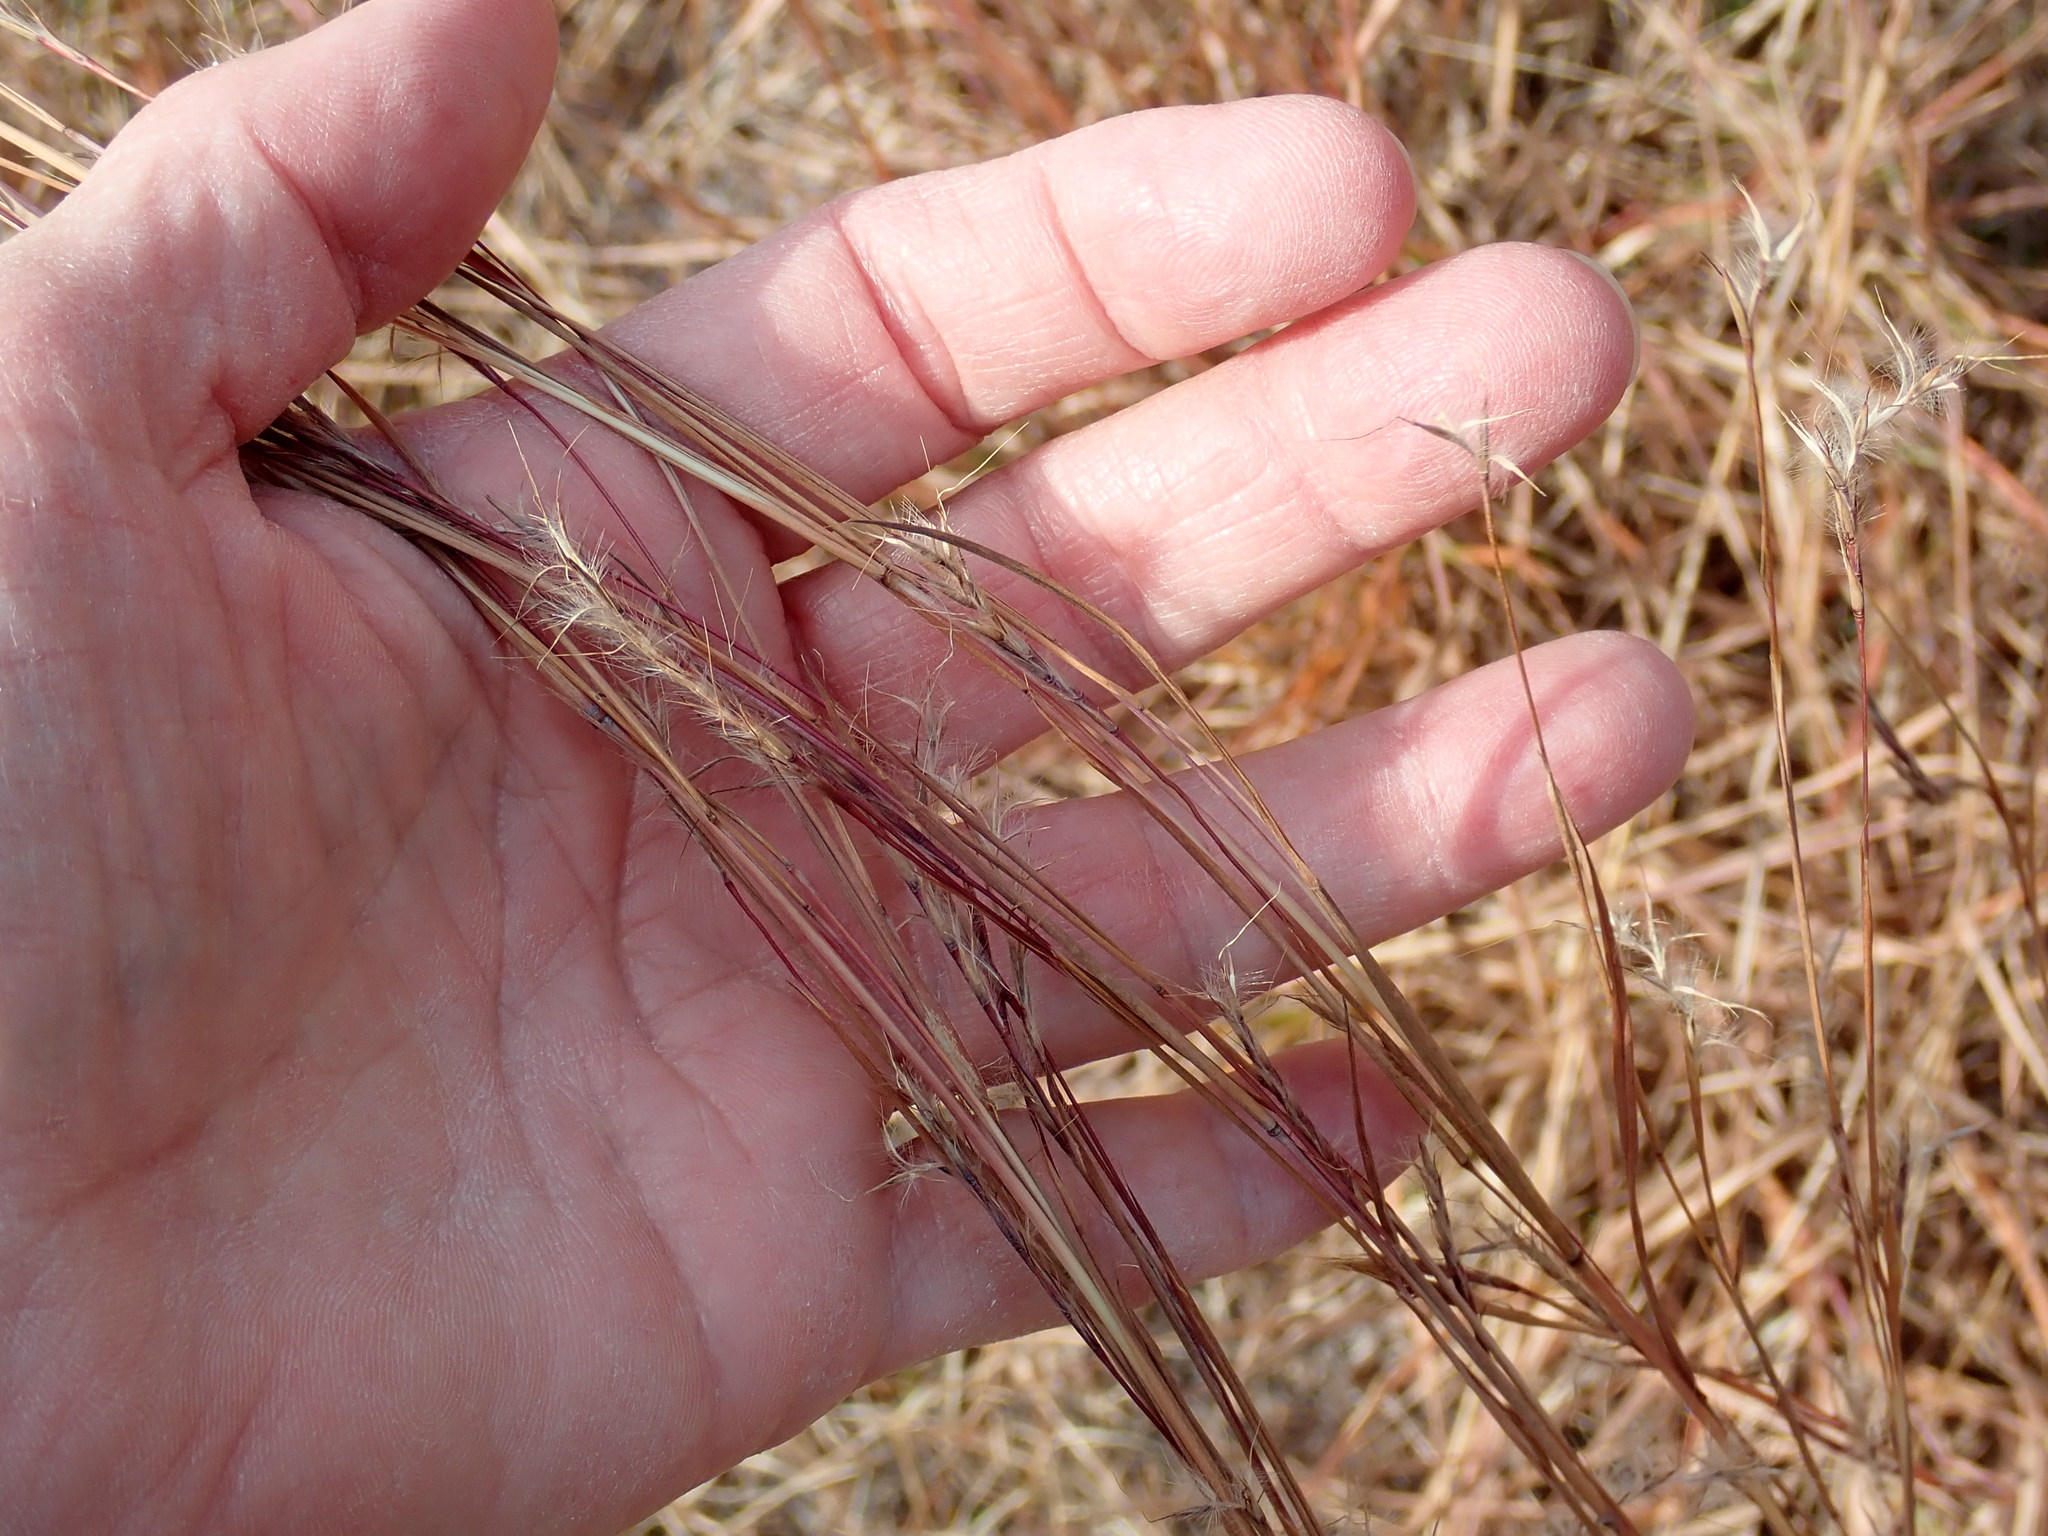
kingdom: Plantae
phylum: Tracheophyta
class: Liliopsida
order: Poales
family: Poaceae
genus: Schizachyrium
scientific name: Schizachyrium scoparium
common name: Little bluestem
